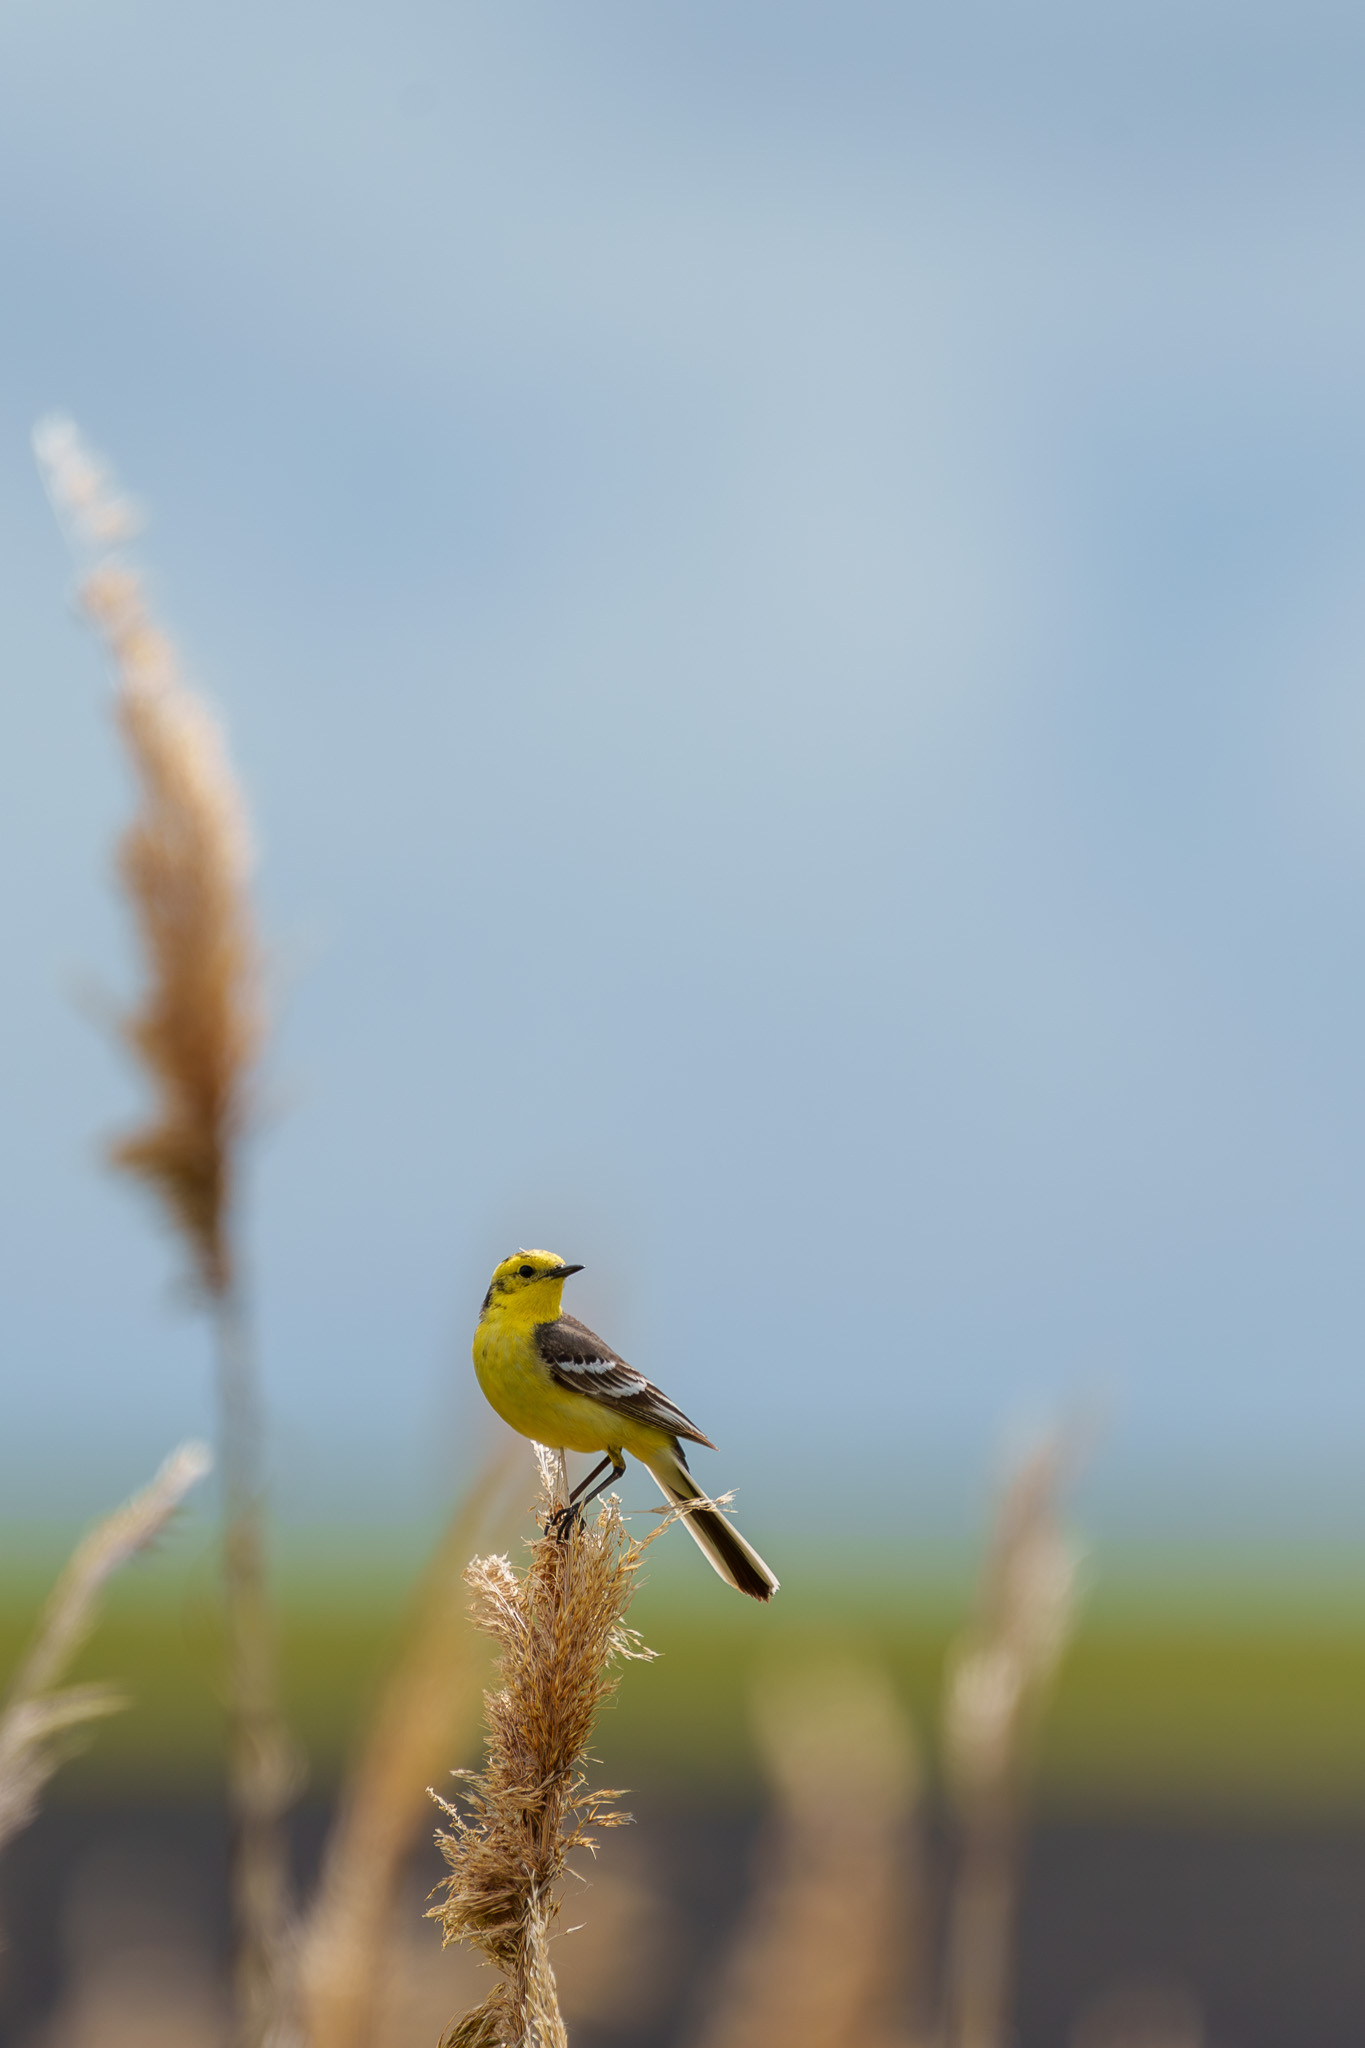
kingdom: Animalia
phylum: Chordata
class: Aves
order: Passeriformes
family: Motacillidae
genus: Motacilla
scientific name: Motacilla citreola
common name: Citrine wagtail
